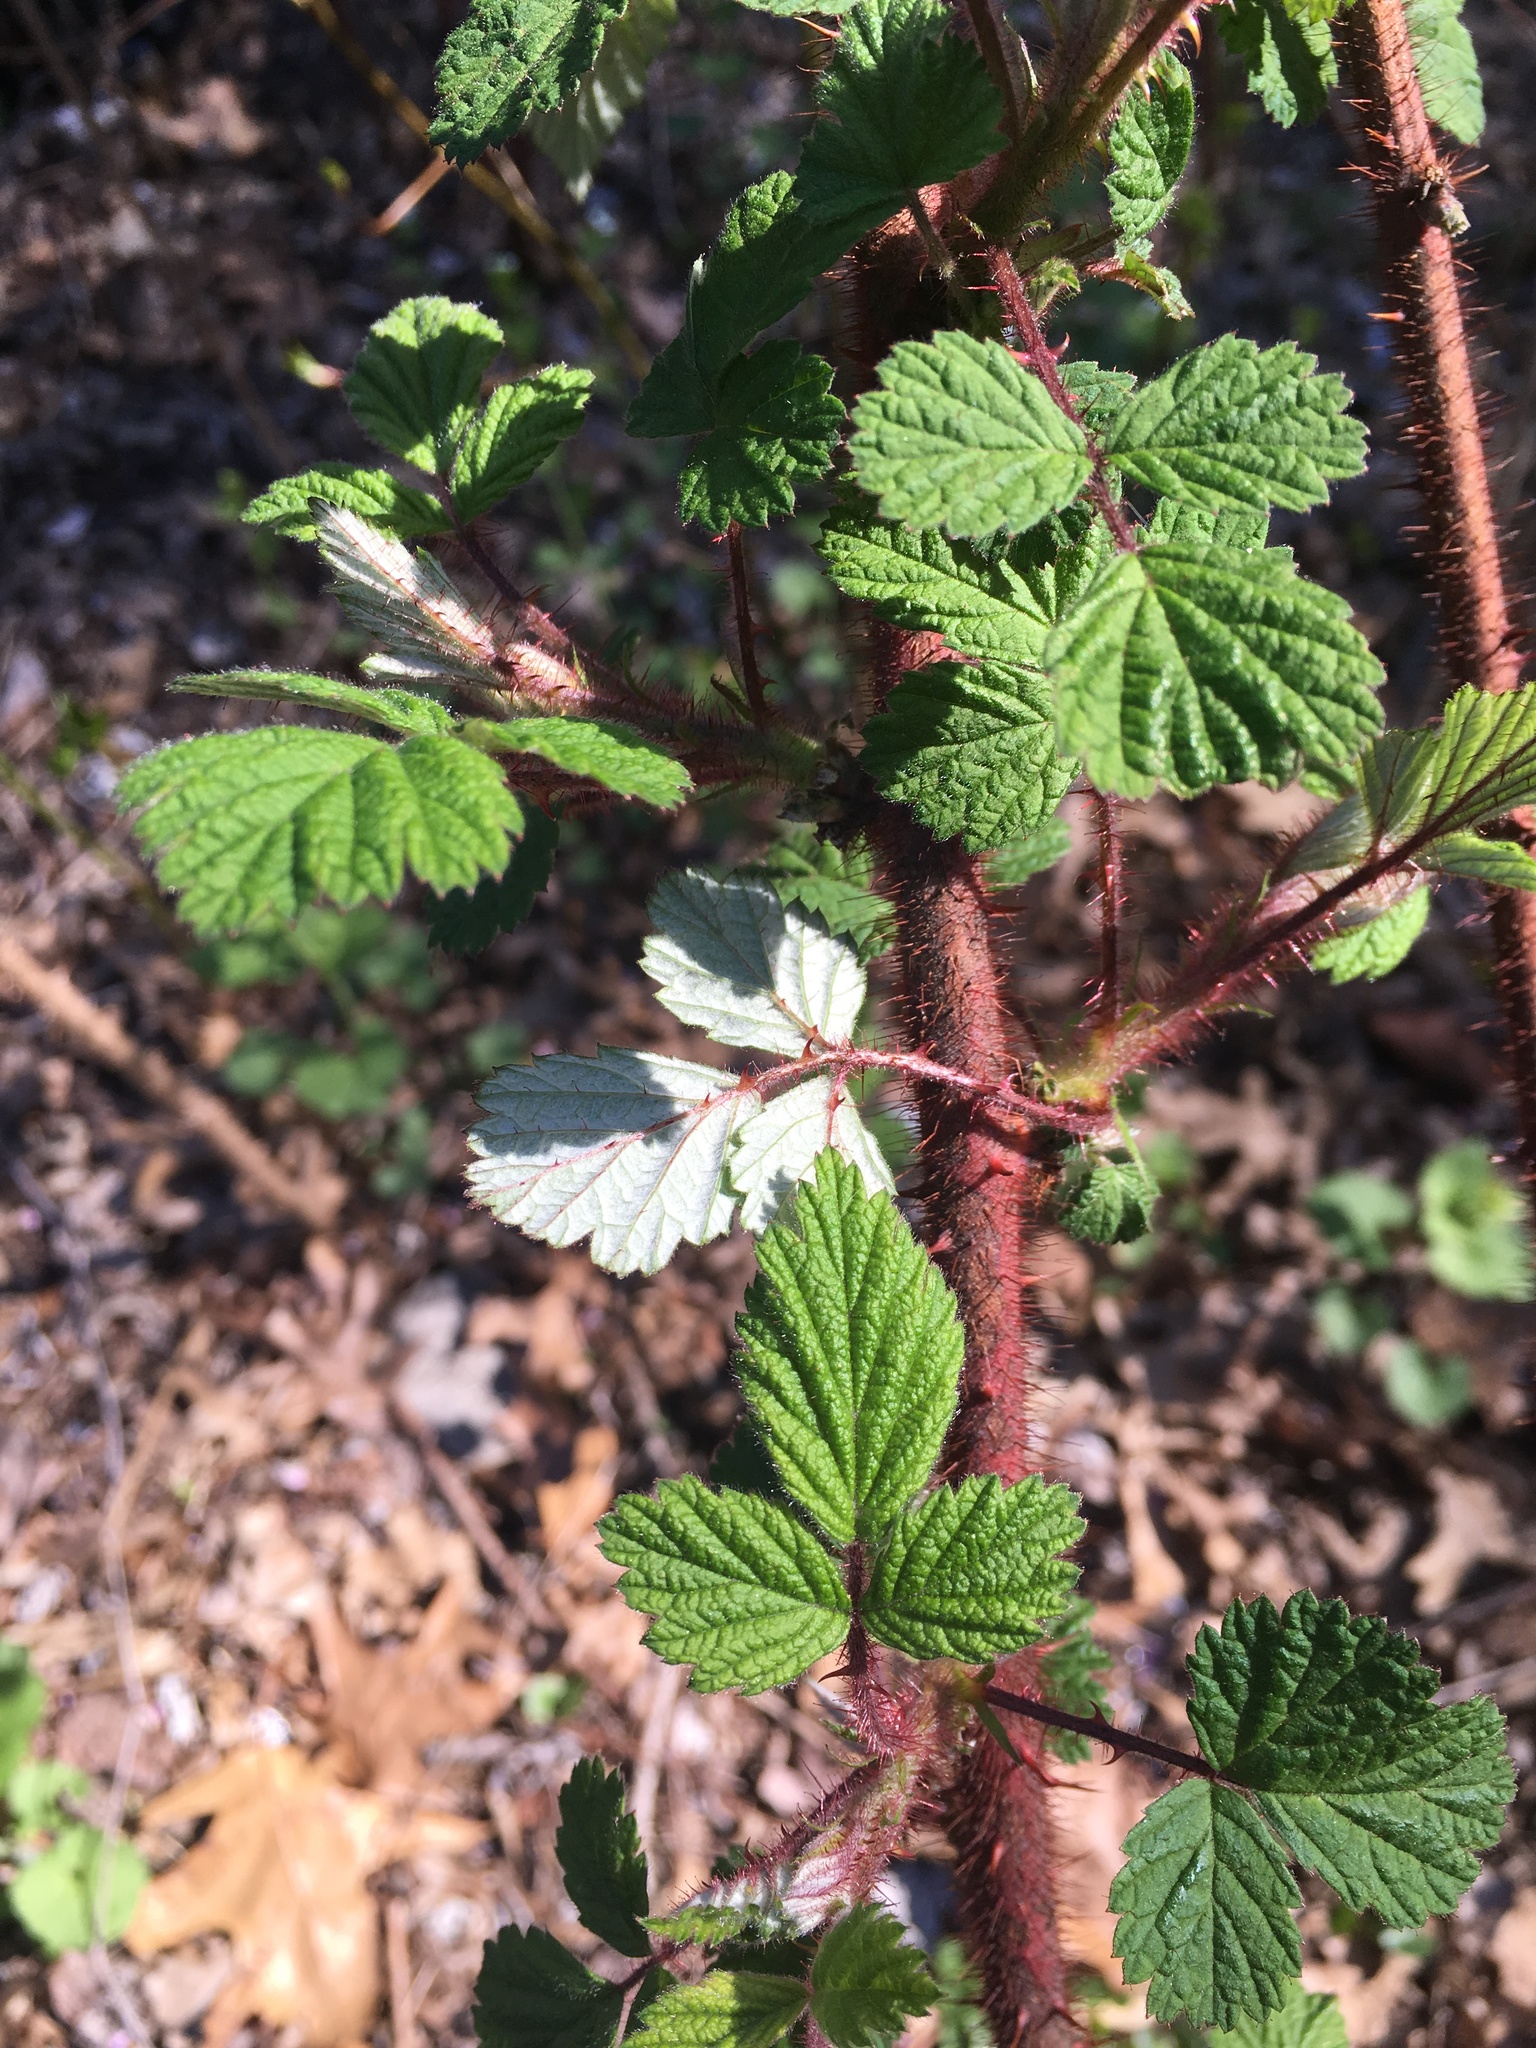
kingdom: Plantae
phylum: Tracheophyta
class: Magnoliopsida
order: Rosales
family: Rosaceae
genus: Rubus
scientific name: Rubus phoenicolasius
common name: Japanese wineberry
